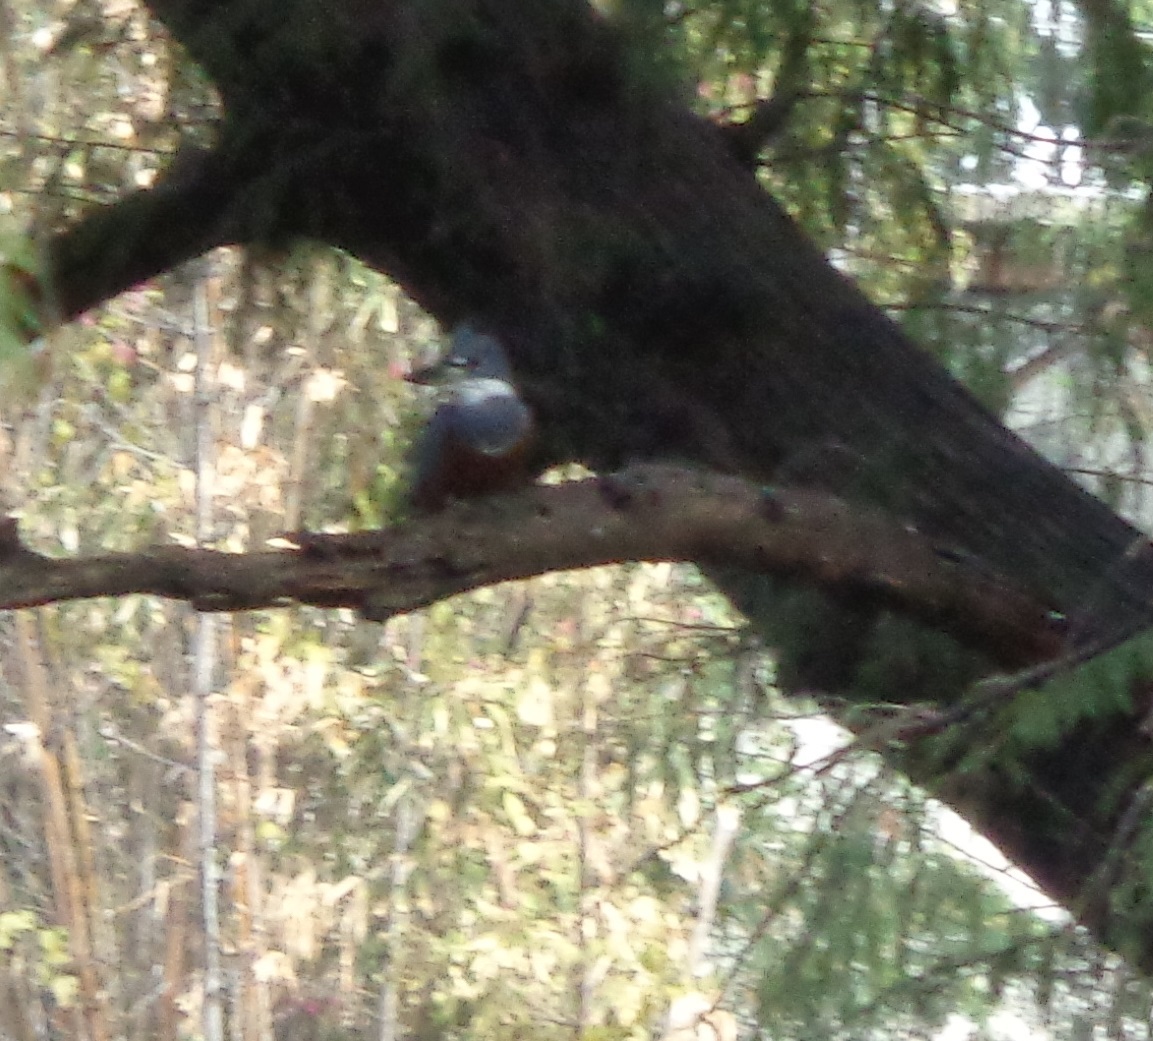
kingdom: Animalia
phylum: Chordata
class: Aves
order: Coraciiformes
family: Alcedinidae
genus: Megaceryle
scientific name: Megaceryle torquata
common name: Ringed kingfisher
